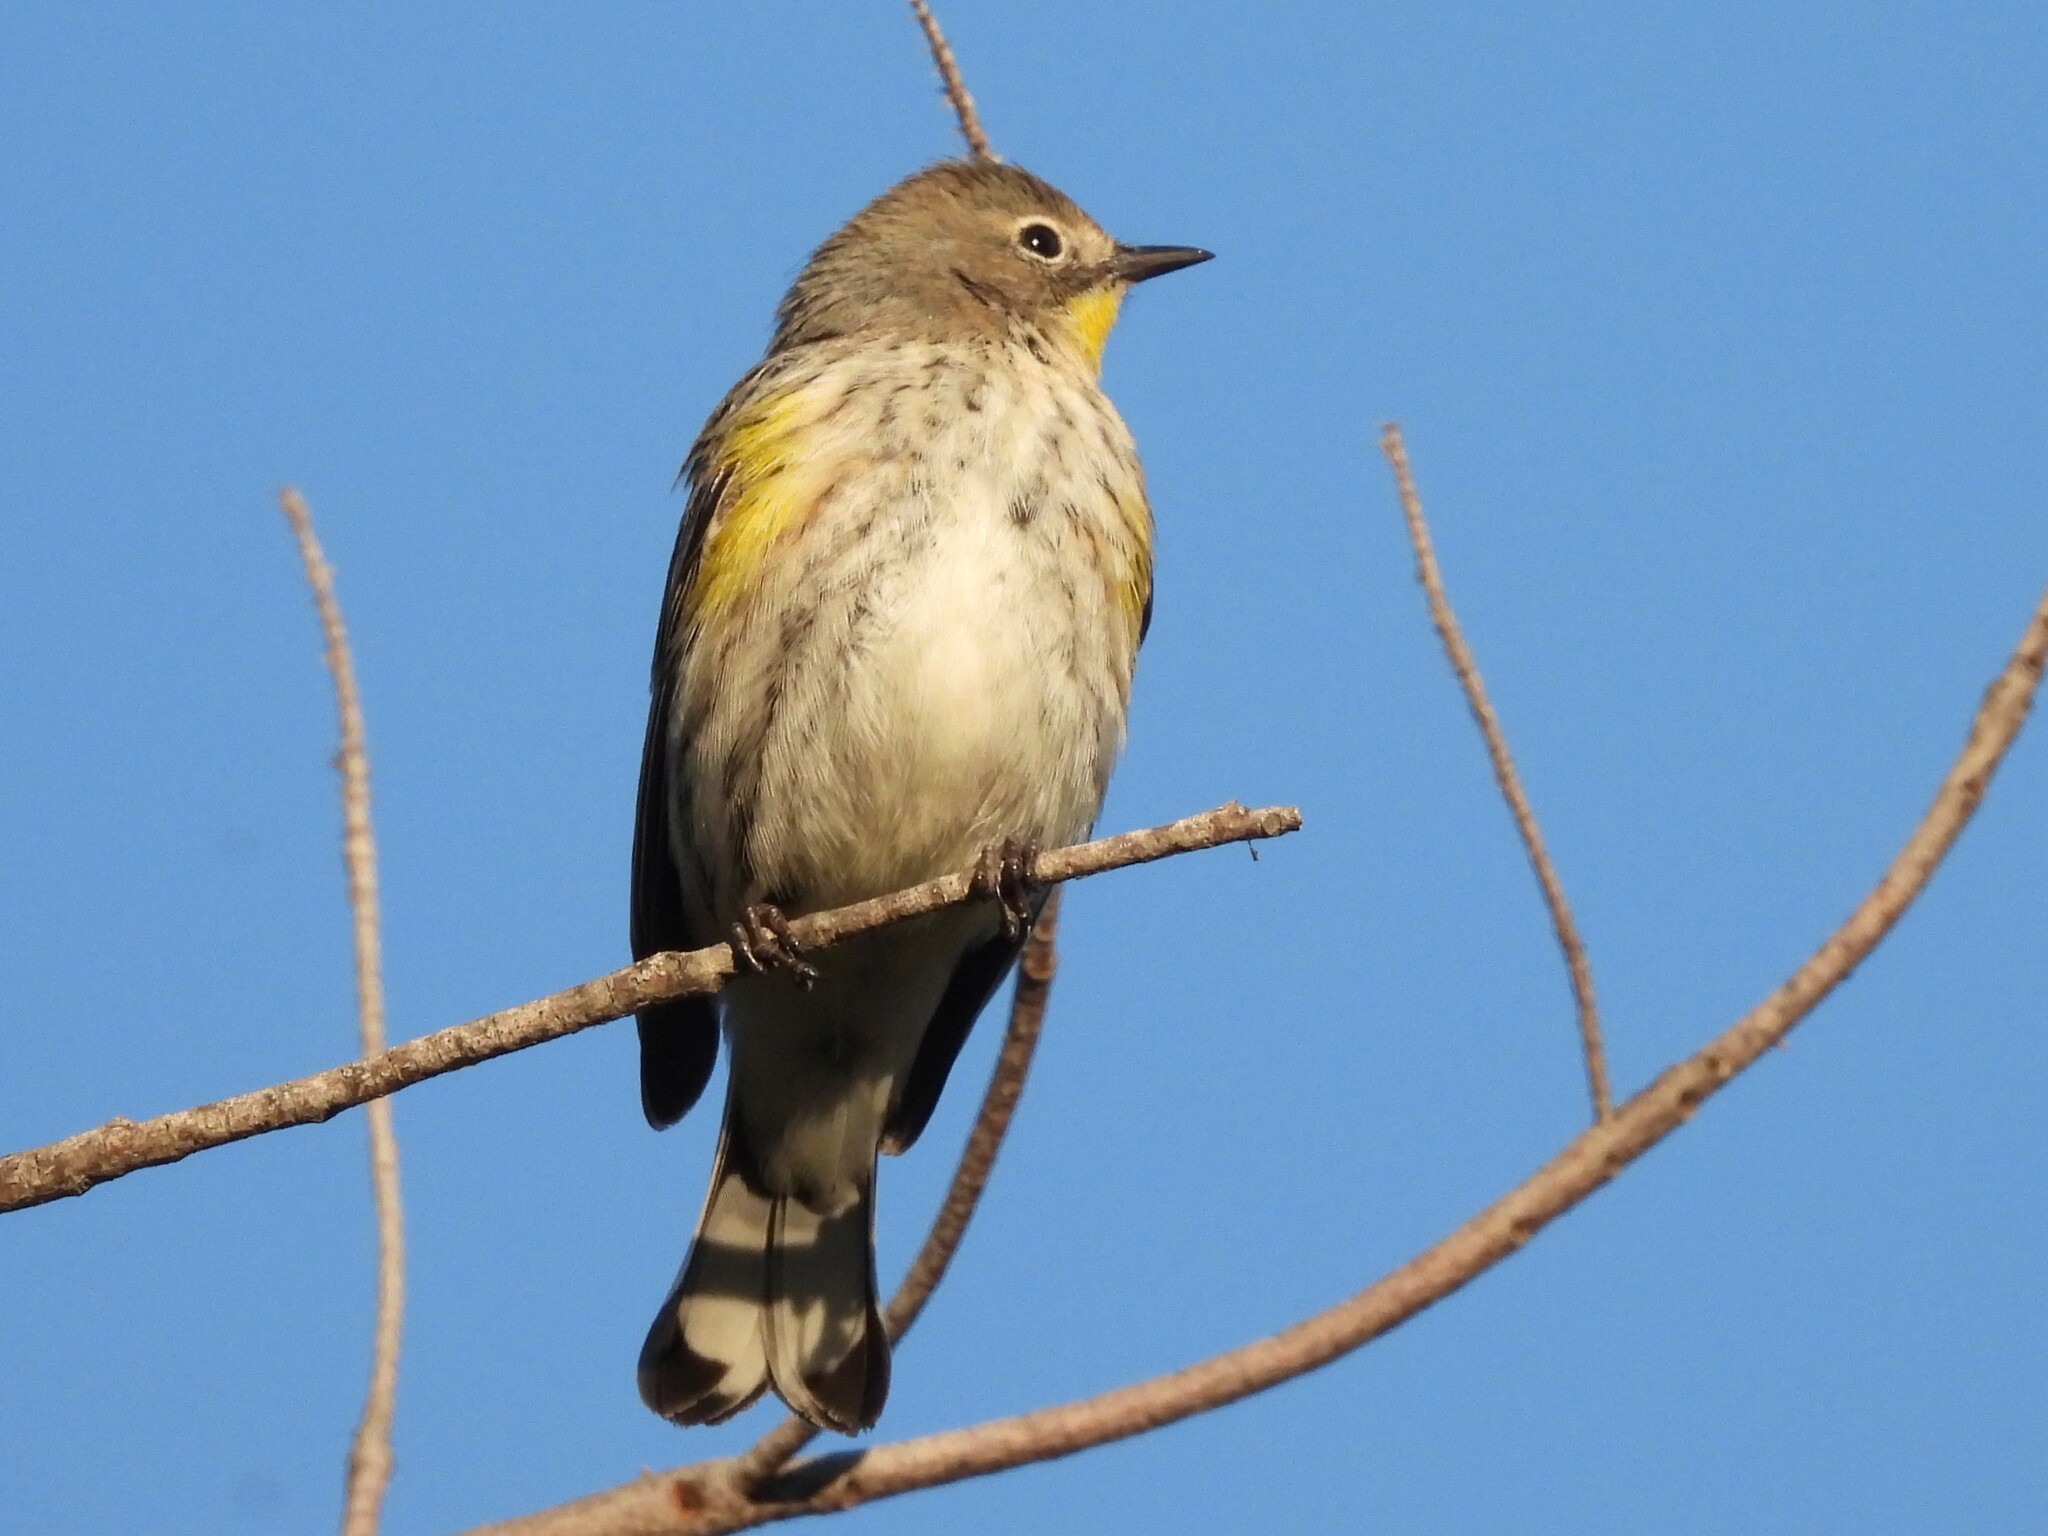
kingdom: Animalia
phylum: Chordata
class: Aves
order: Passeriformes
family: Parulidae
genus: Setophaga
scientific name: Setophaga coronata
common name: Myrtle warbler
